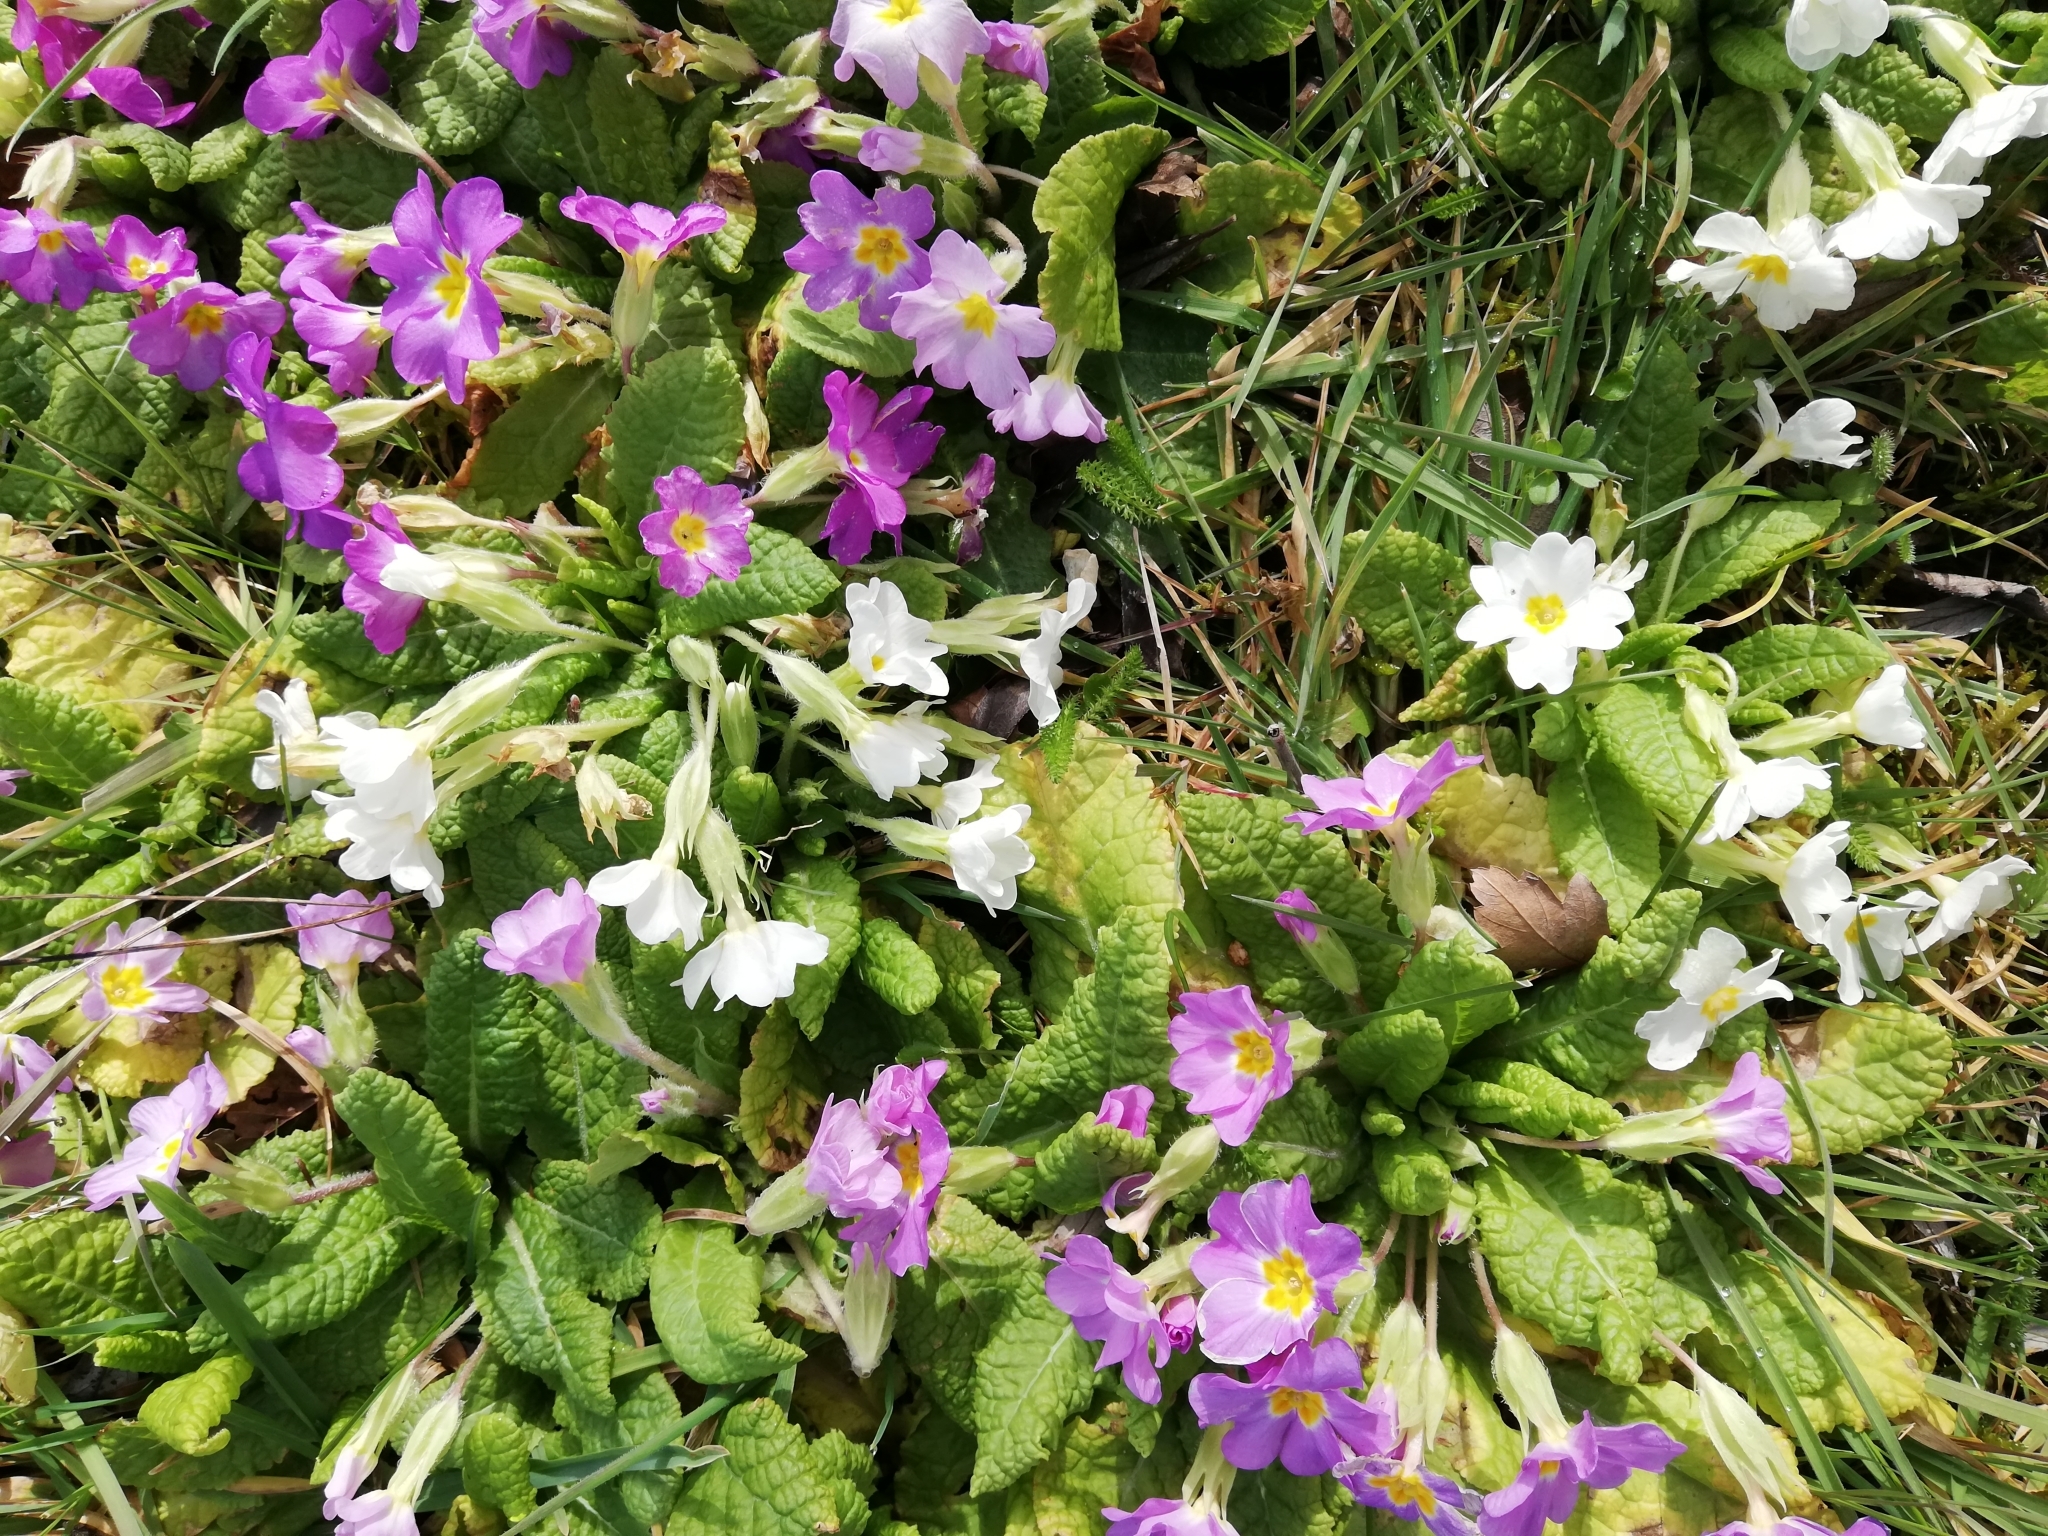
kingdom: Plantae
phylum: Tracheophyta
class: Magnoliopsida
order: Ericales
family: Primulaceae
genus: Primula
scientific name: Primula vulgaris
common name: Primrose
